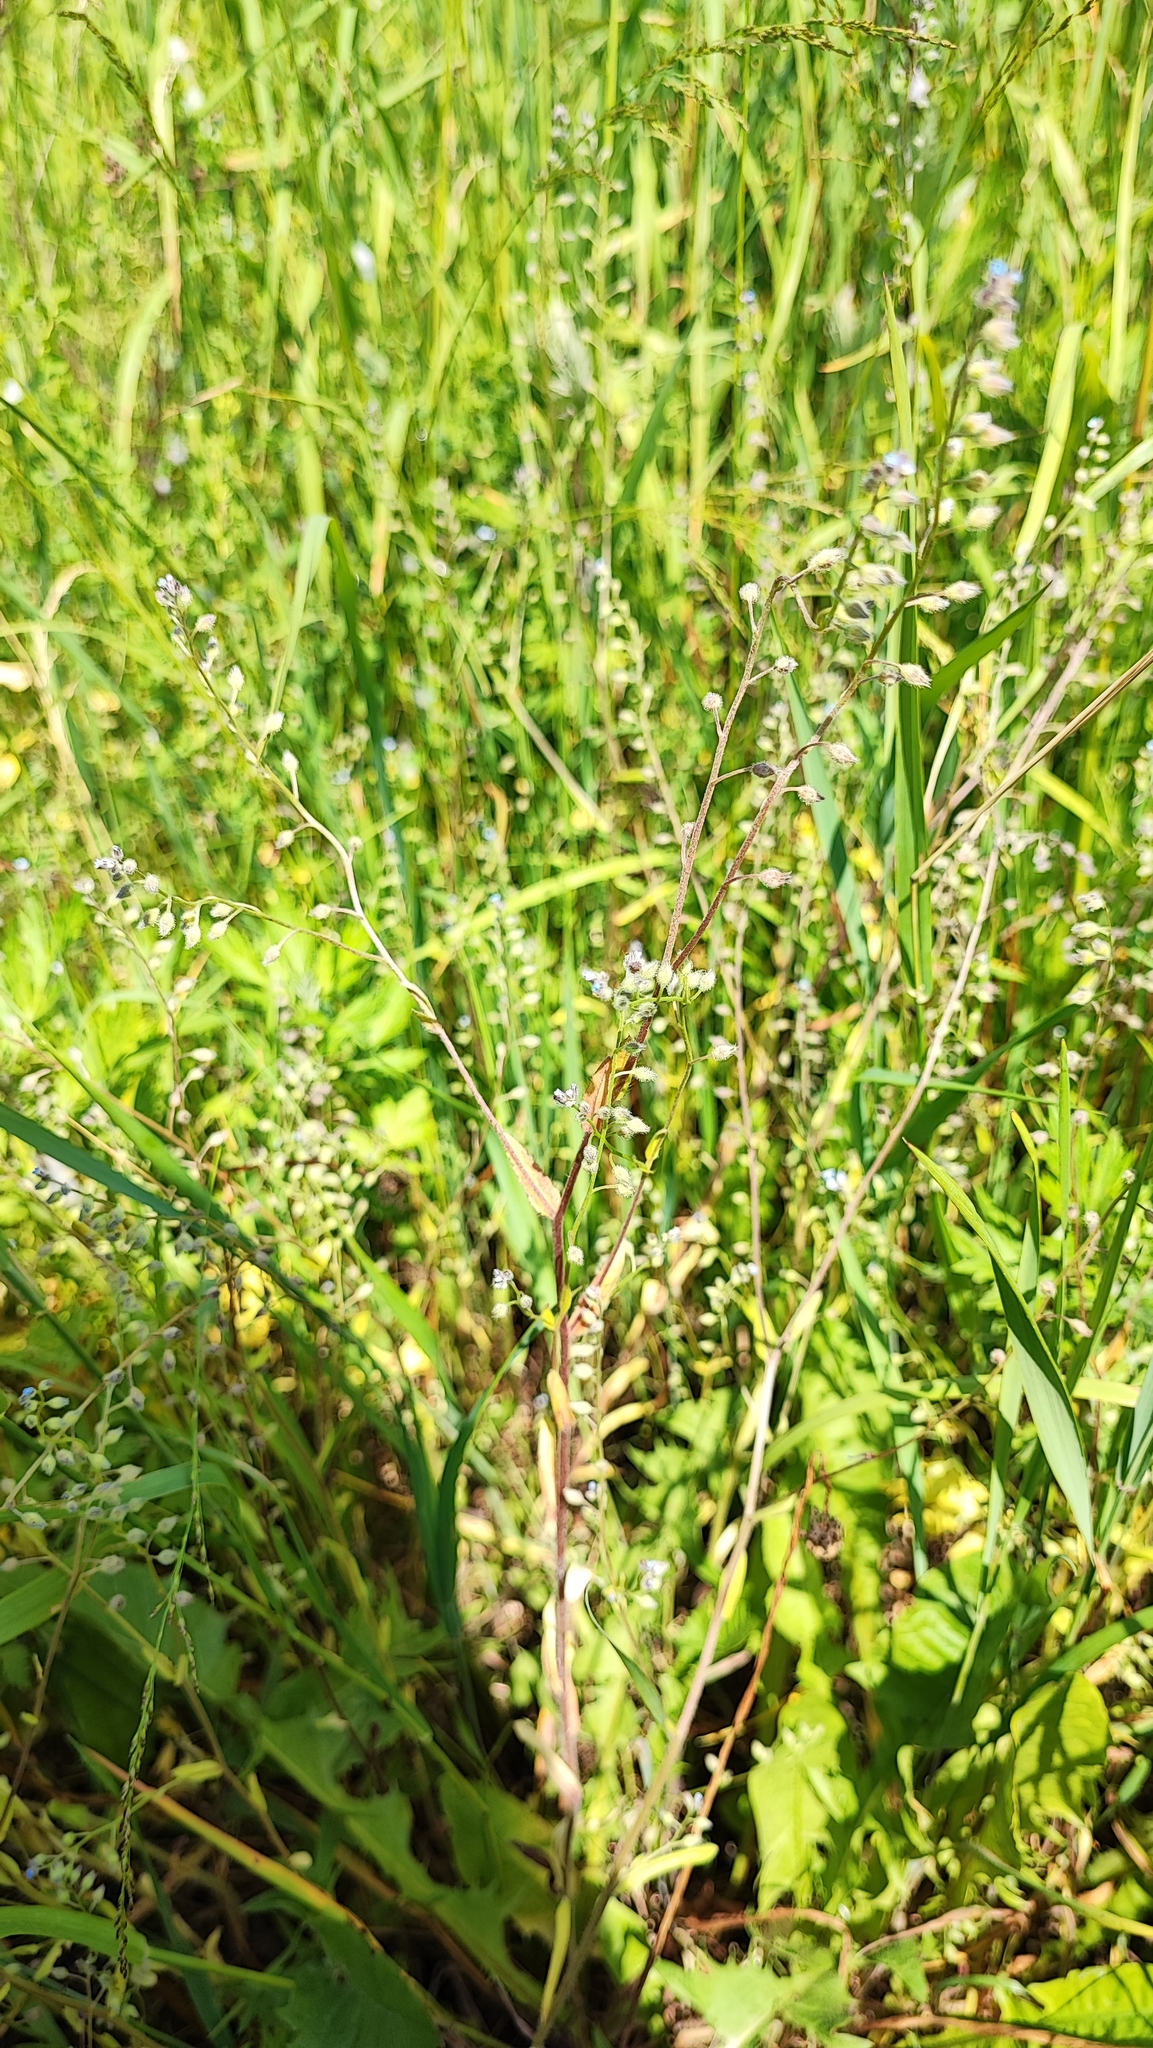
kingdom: Plantae
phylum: Tracheophyta
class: Magnoliopsida
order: Boraginales
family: Boraginaceae
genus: Myosotis
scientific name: Myosotis arvensis
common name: Field forget-me-not
